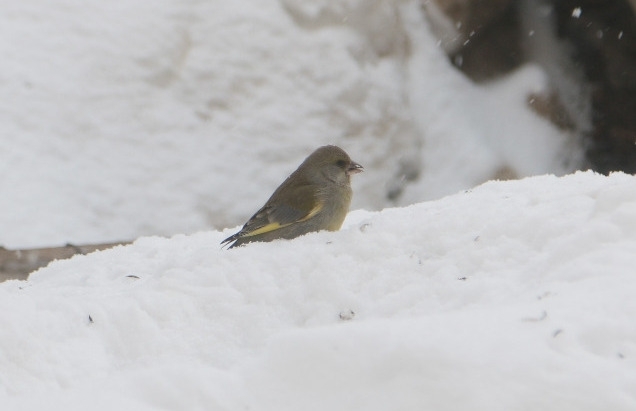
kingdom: Plantae
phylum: Tracheophyta
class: Liliopsida
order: Poales
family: Poaceae
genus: Chloris
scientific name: Chloris chloris
